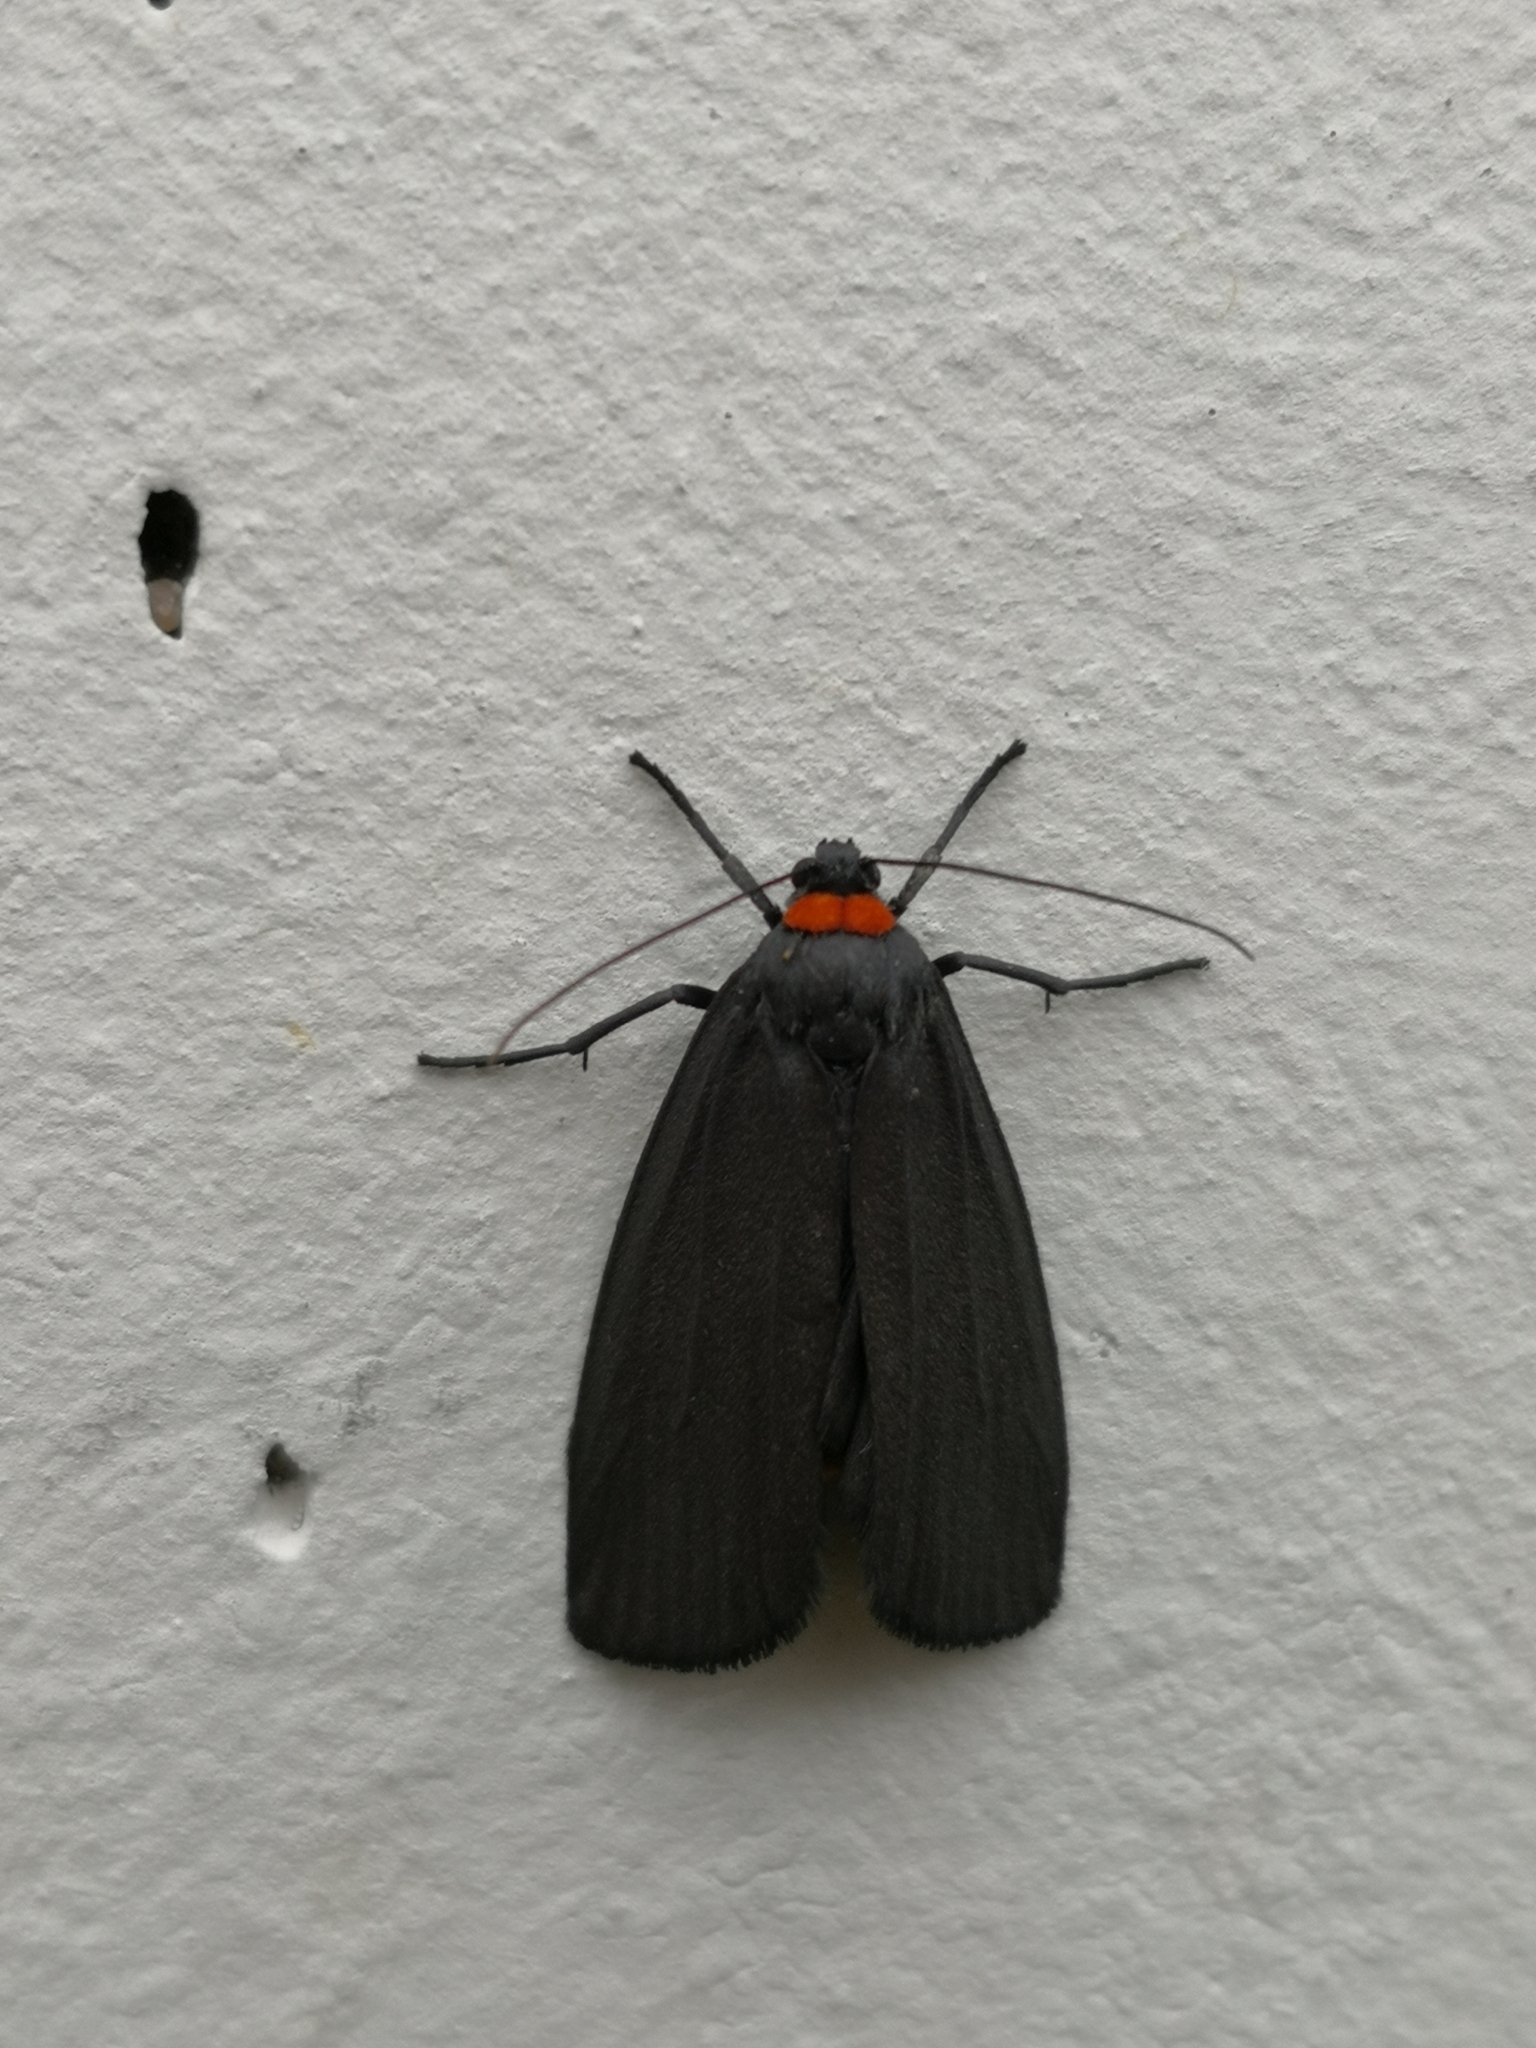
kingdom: Animalia
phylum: Arthropoda
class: Insecta
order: Lepidoptera
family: Erebidae
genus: Atolmis
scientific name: Atolmis rubricollis
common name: Red-necked footman
